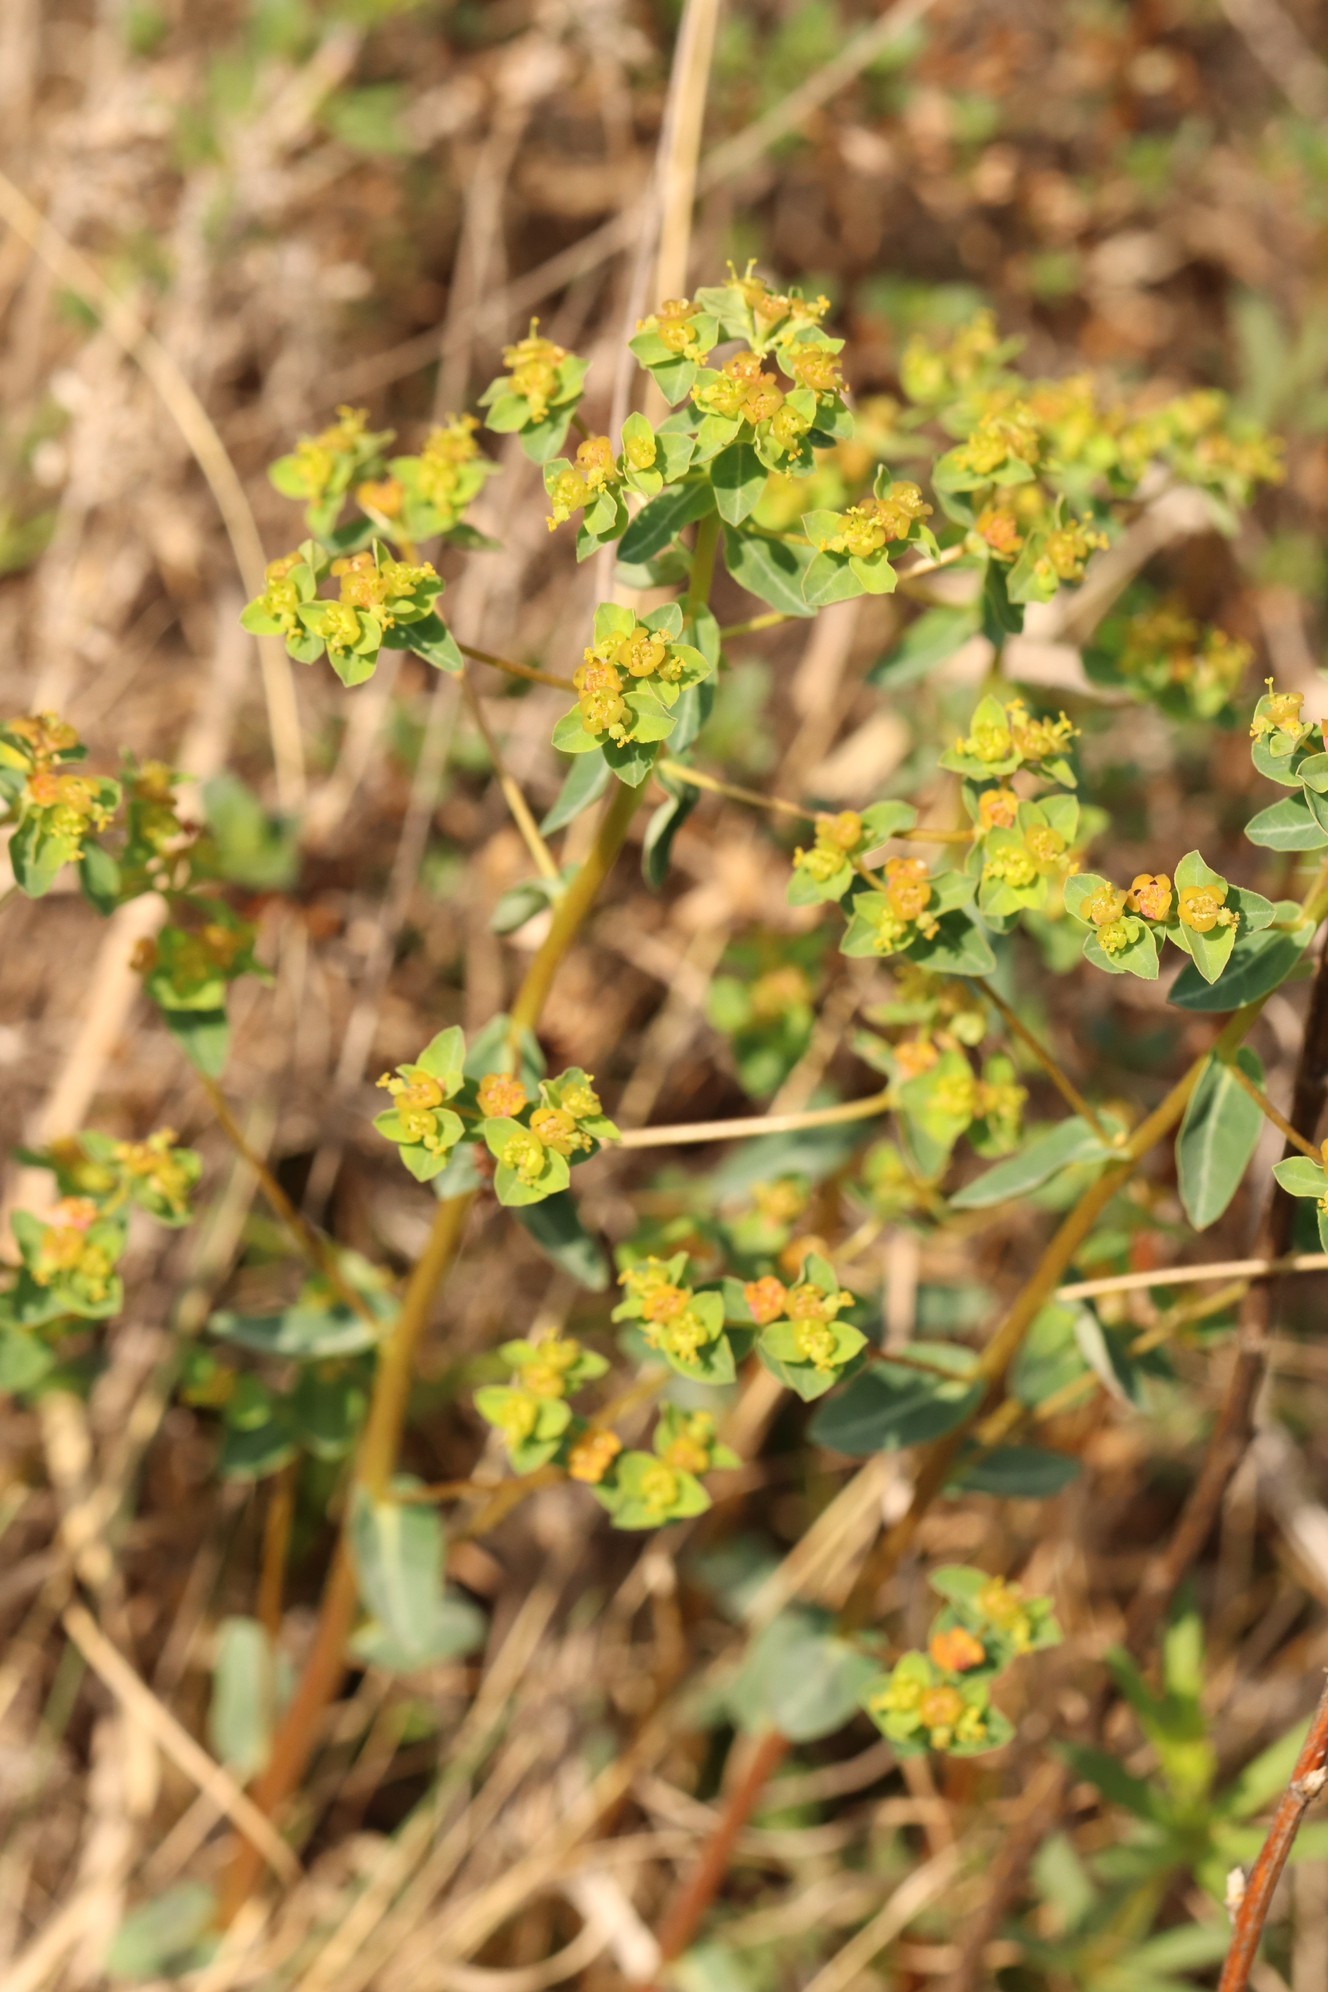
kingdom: Plantae
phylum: Tracheophyta
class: Magnoliopsida
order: Malpighiales
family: Euphorbiaceae
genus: Euphorbia
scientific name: Euphorbia alpina
